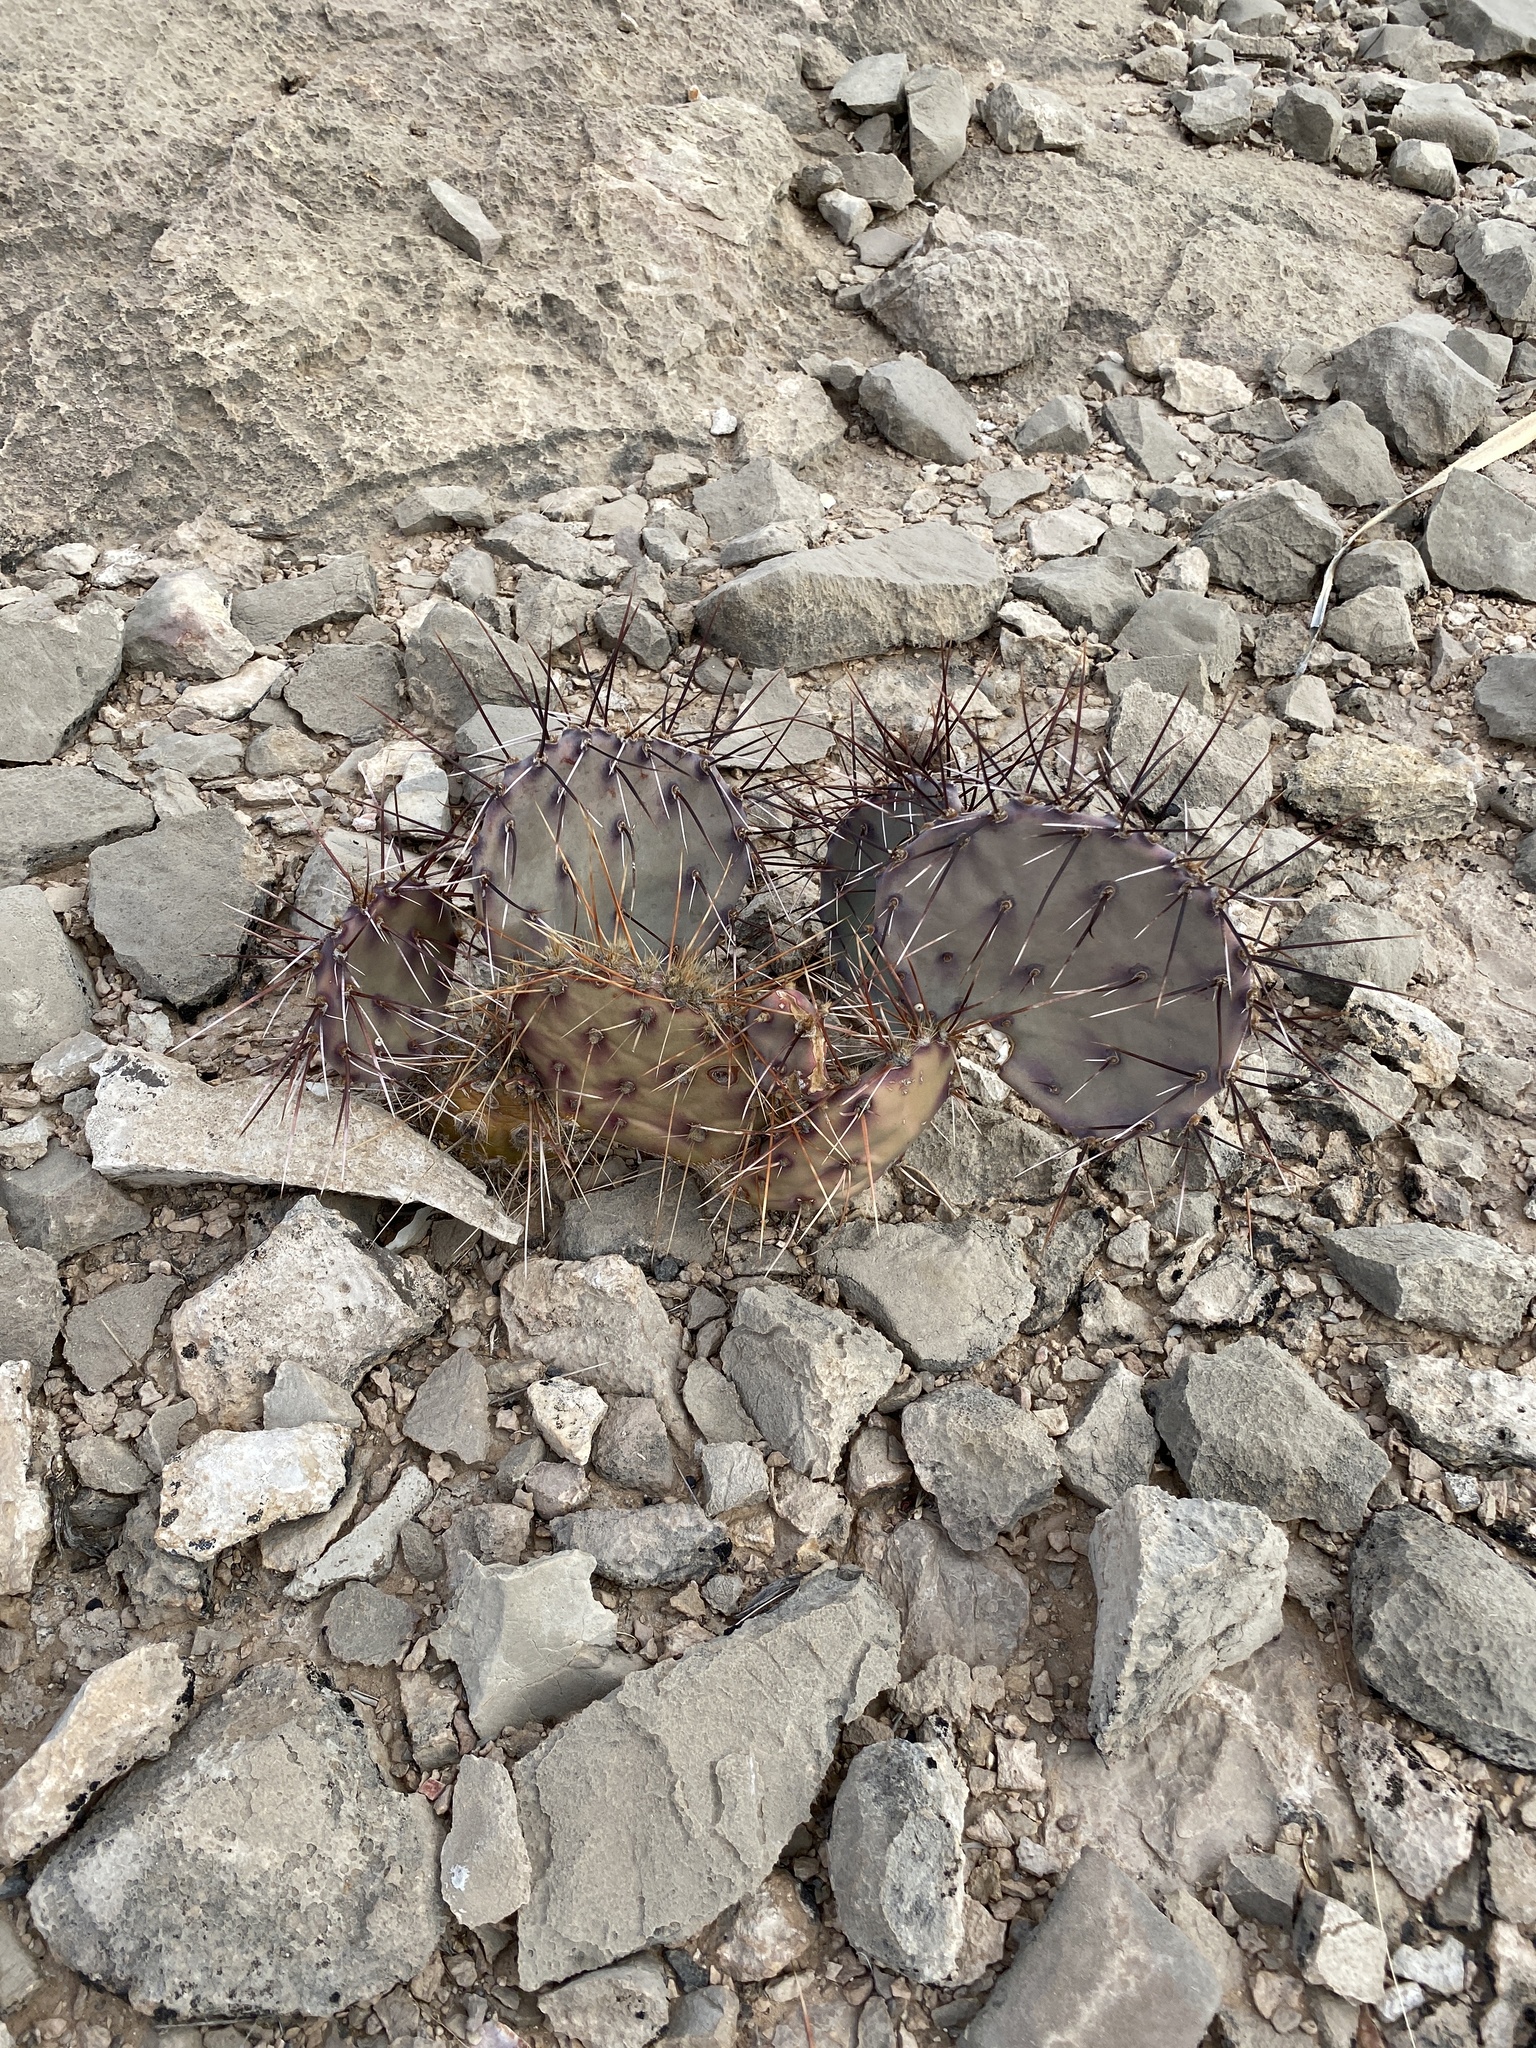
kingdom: Plantae
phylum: Tracheophyta
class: Magnoliopsida
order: Caryophyllales
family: Cactaceae
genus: Opuntia
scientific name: Opuntia macrocentra
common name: Purple prickly-pear
